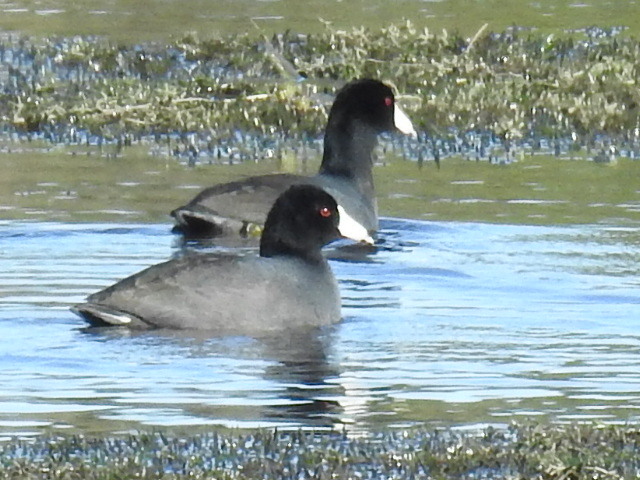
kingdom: Animalia
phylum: Chordata
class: Aves
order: Gruiformes
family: Rallidae
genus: Fulica
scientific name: Fulica americana
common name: American coot
